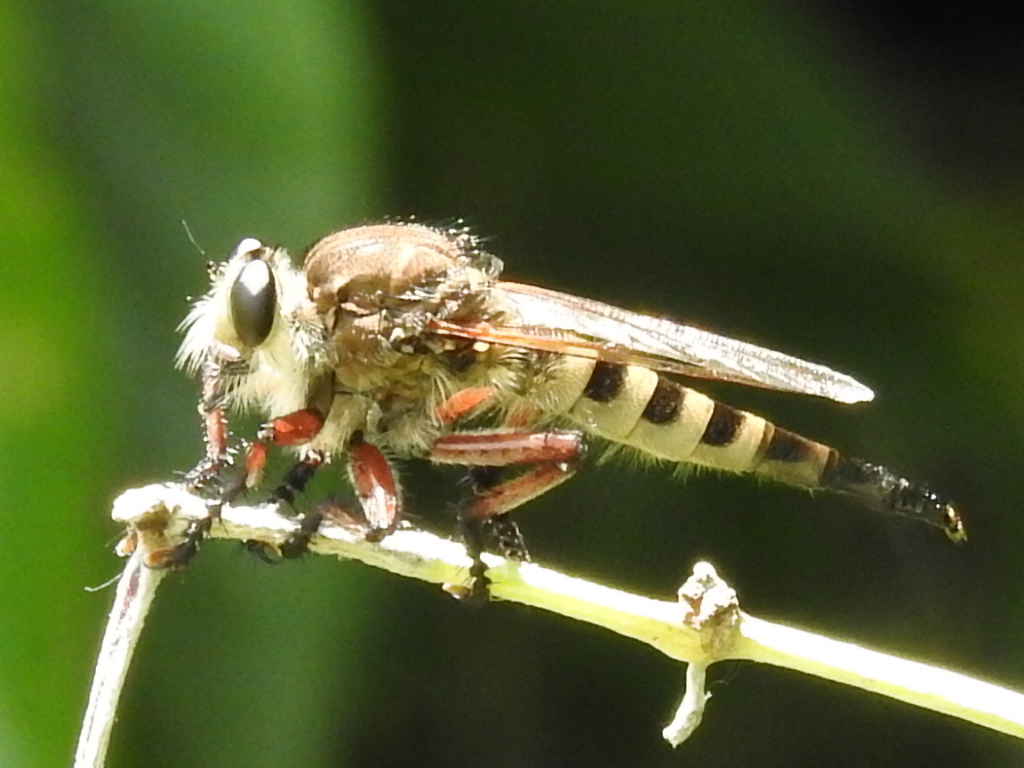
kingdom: Animalia
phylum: Arthropoda
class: Insecta
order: Diptera
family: Asilidae
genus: Promachus
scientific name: Promachus hinei
